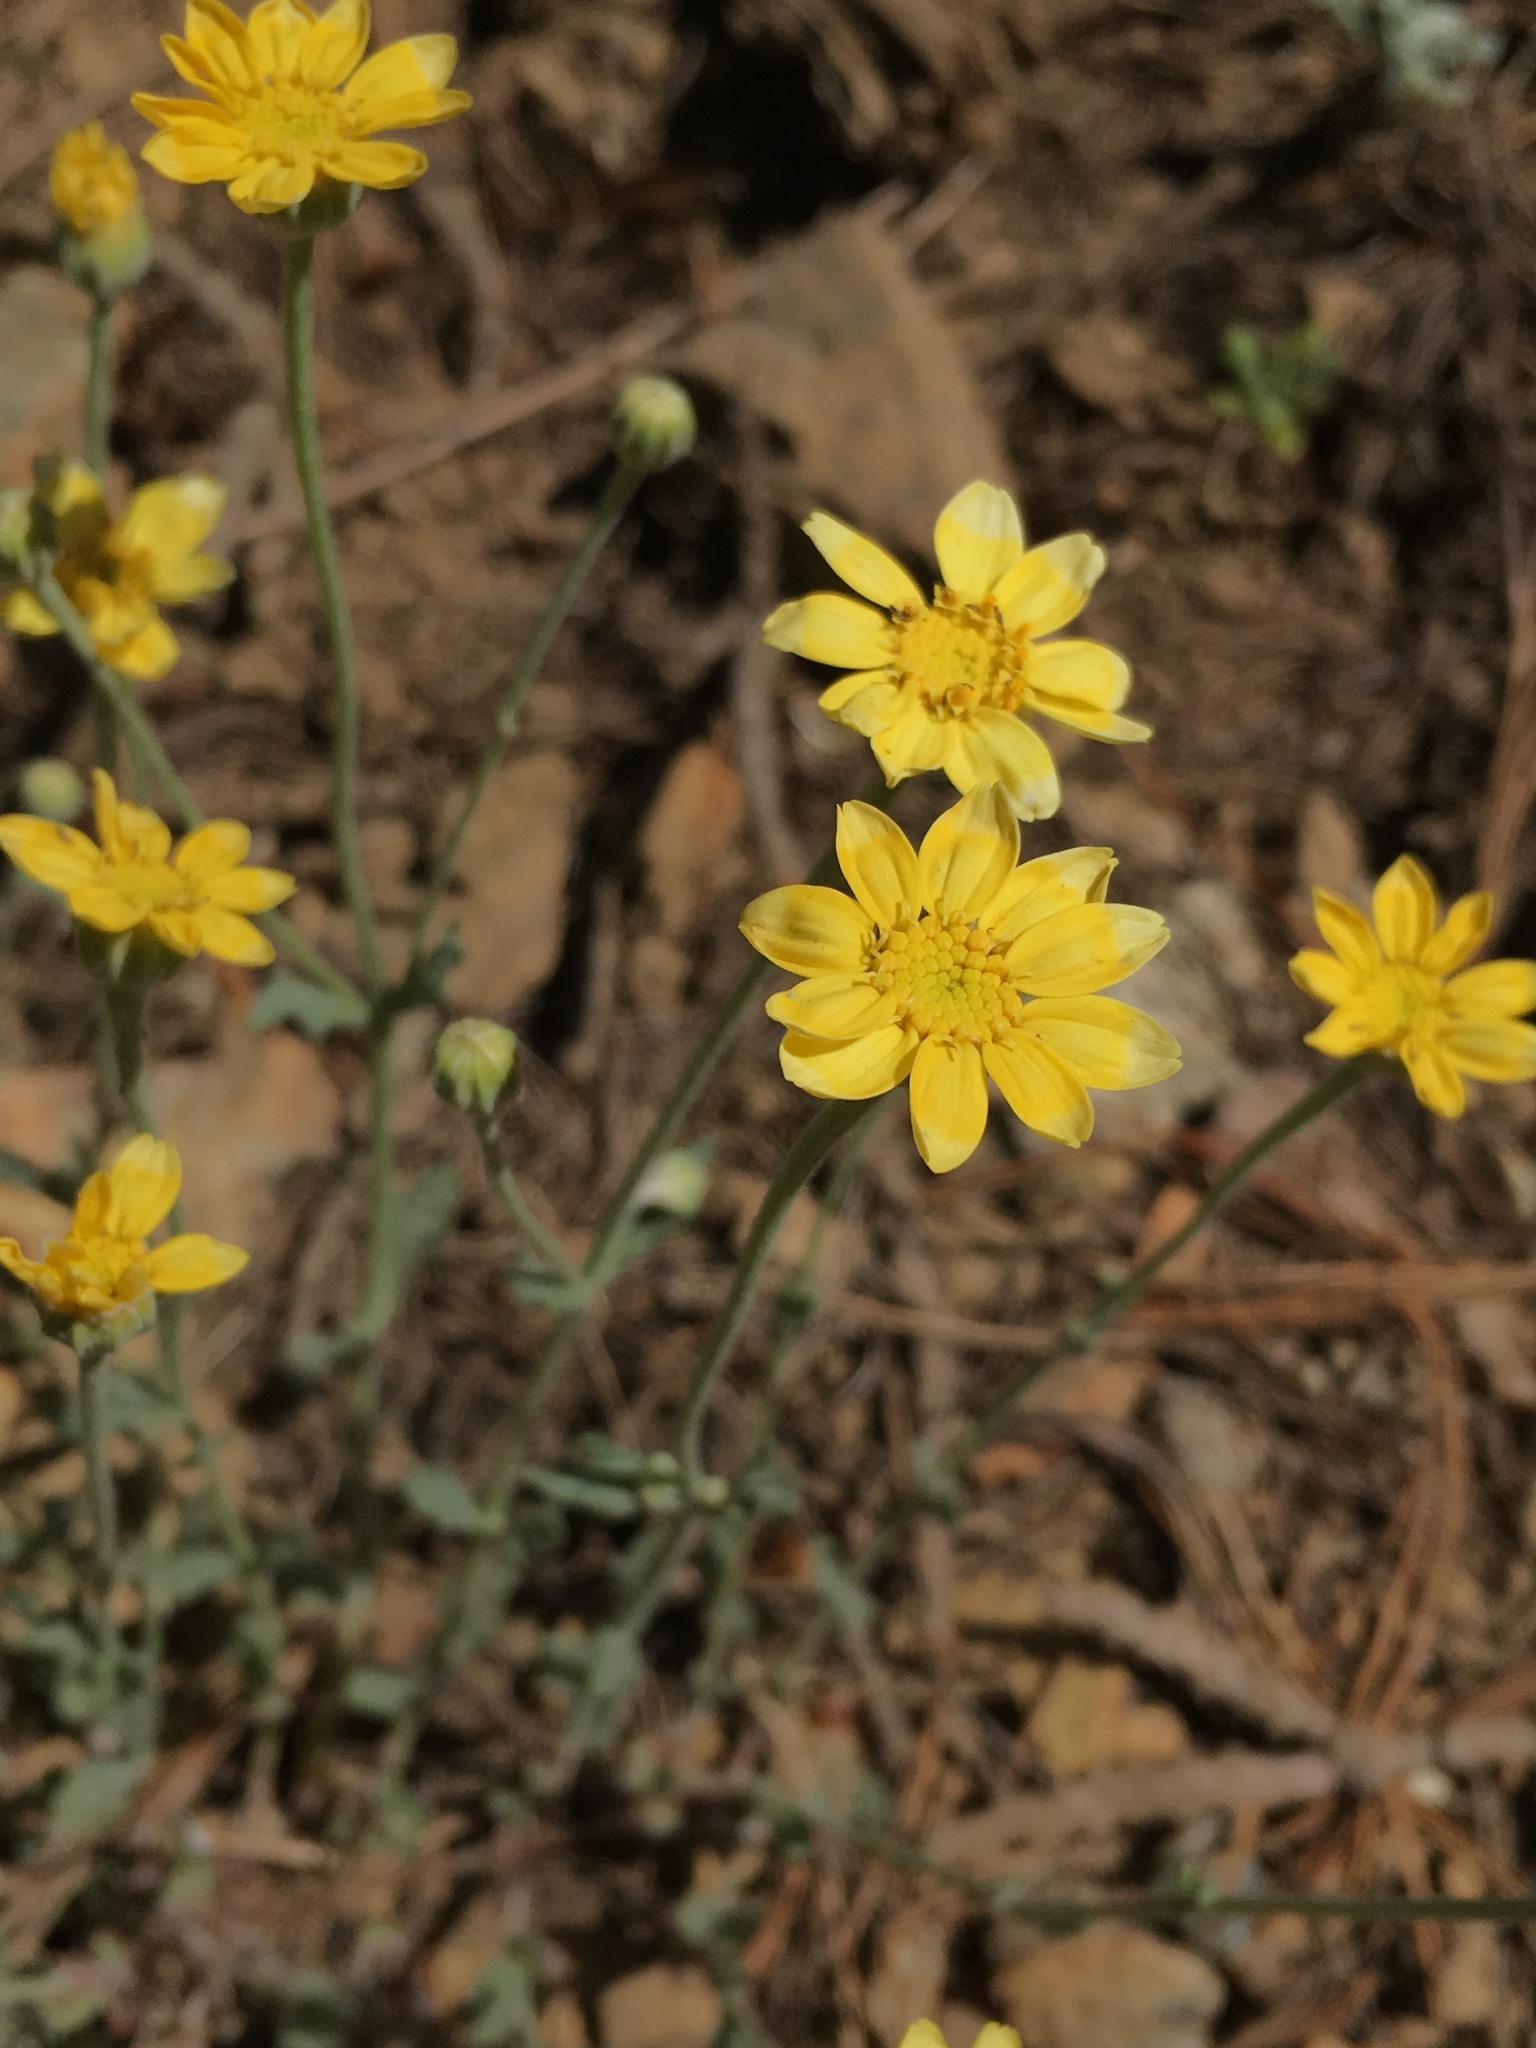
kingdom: Plantae
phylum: Tracheophyta
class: Magnoliopsida
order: Asterales
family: Asteraceae
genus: Eriophyllum
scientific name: Eriophyllum lanatum
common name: Common woolly-sunflower
